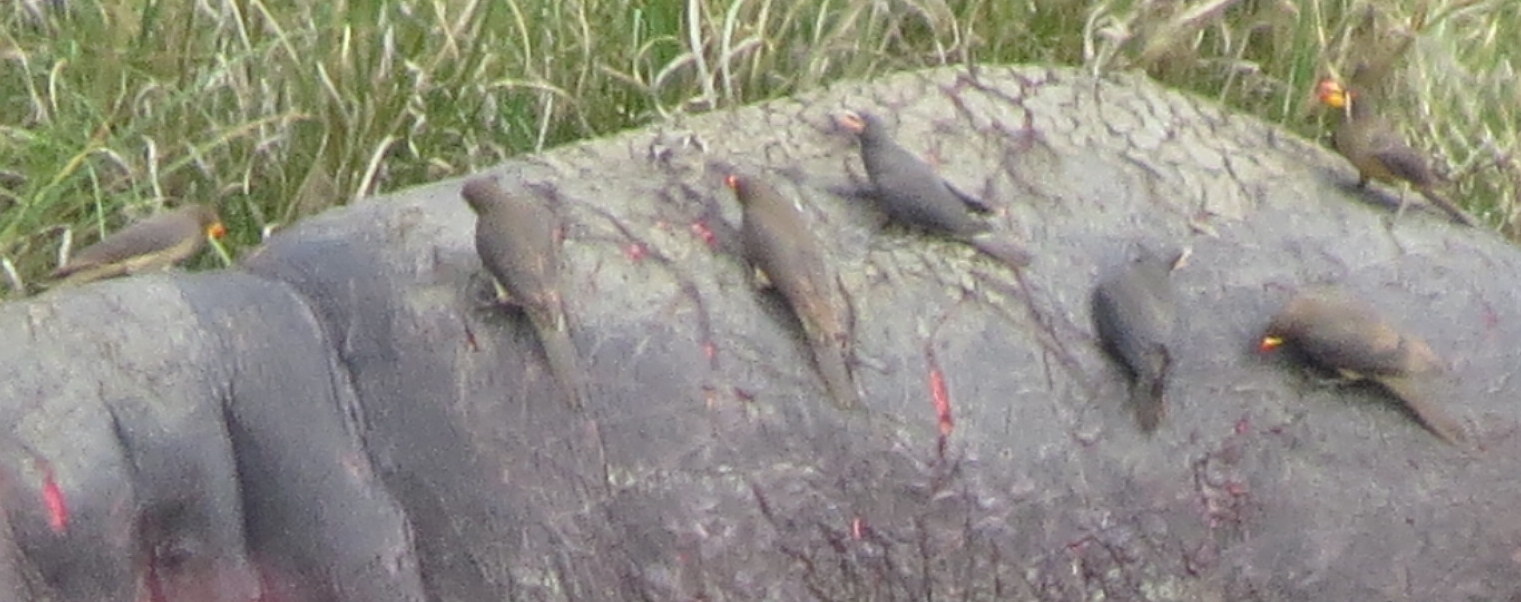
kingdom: Animalia
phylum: Chordata
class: Aves
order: Passeriformes
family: Buphagidae
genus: Buphagus
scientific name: Buphagus africanus
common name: Yellow-billed oxpecker
